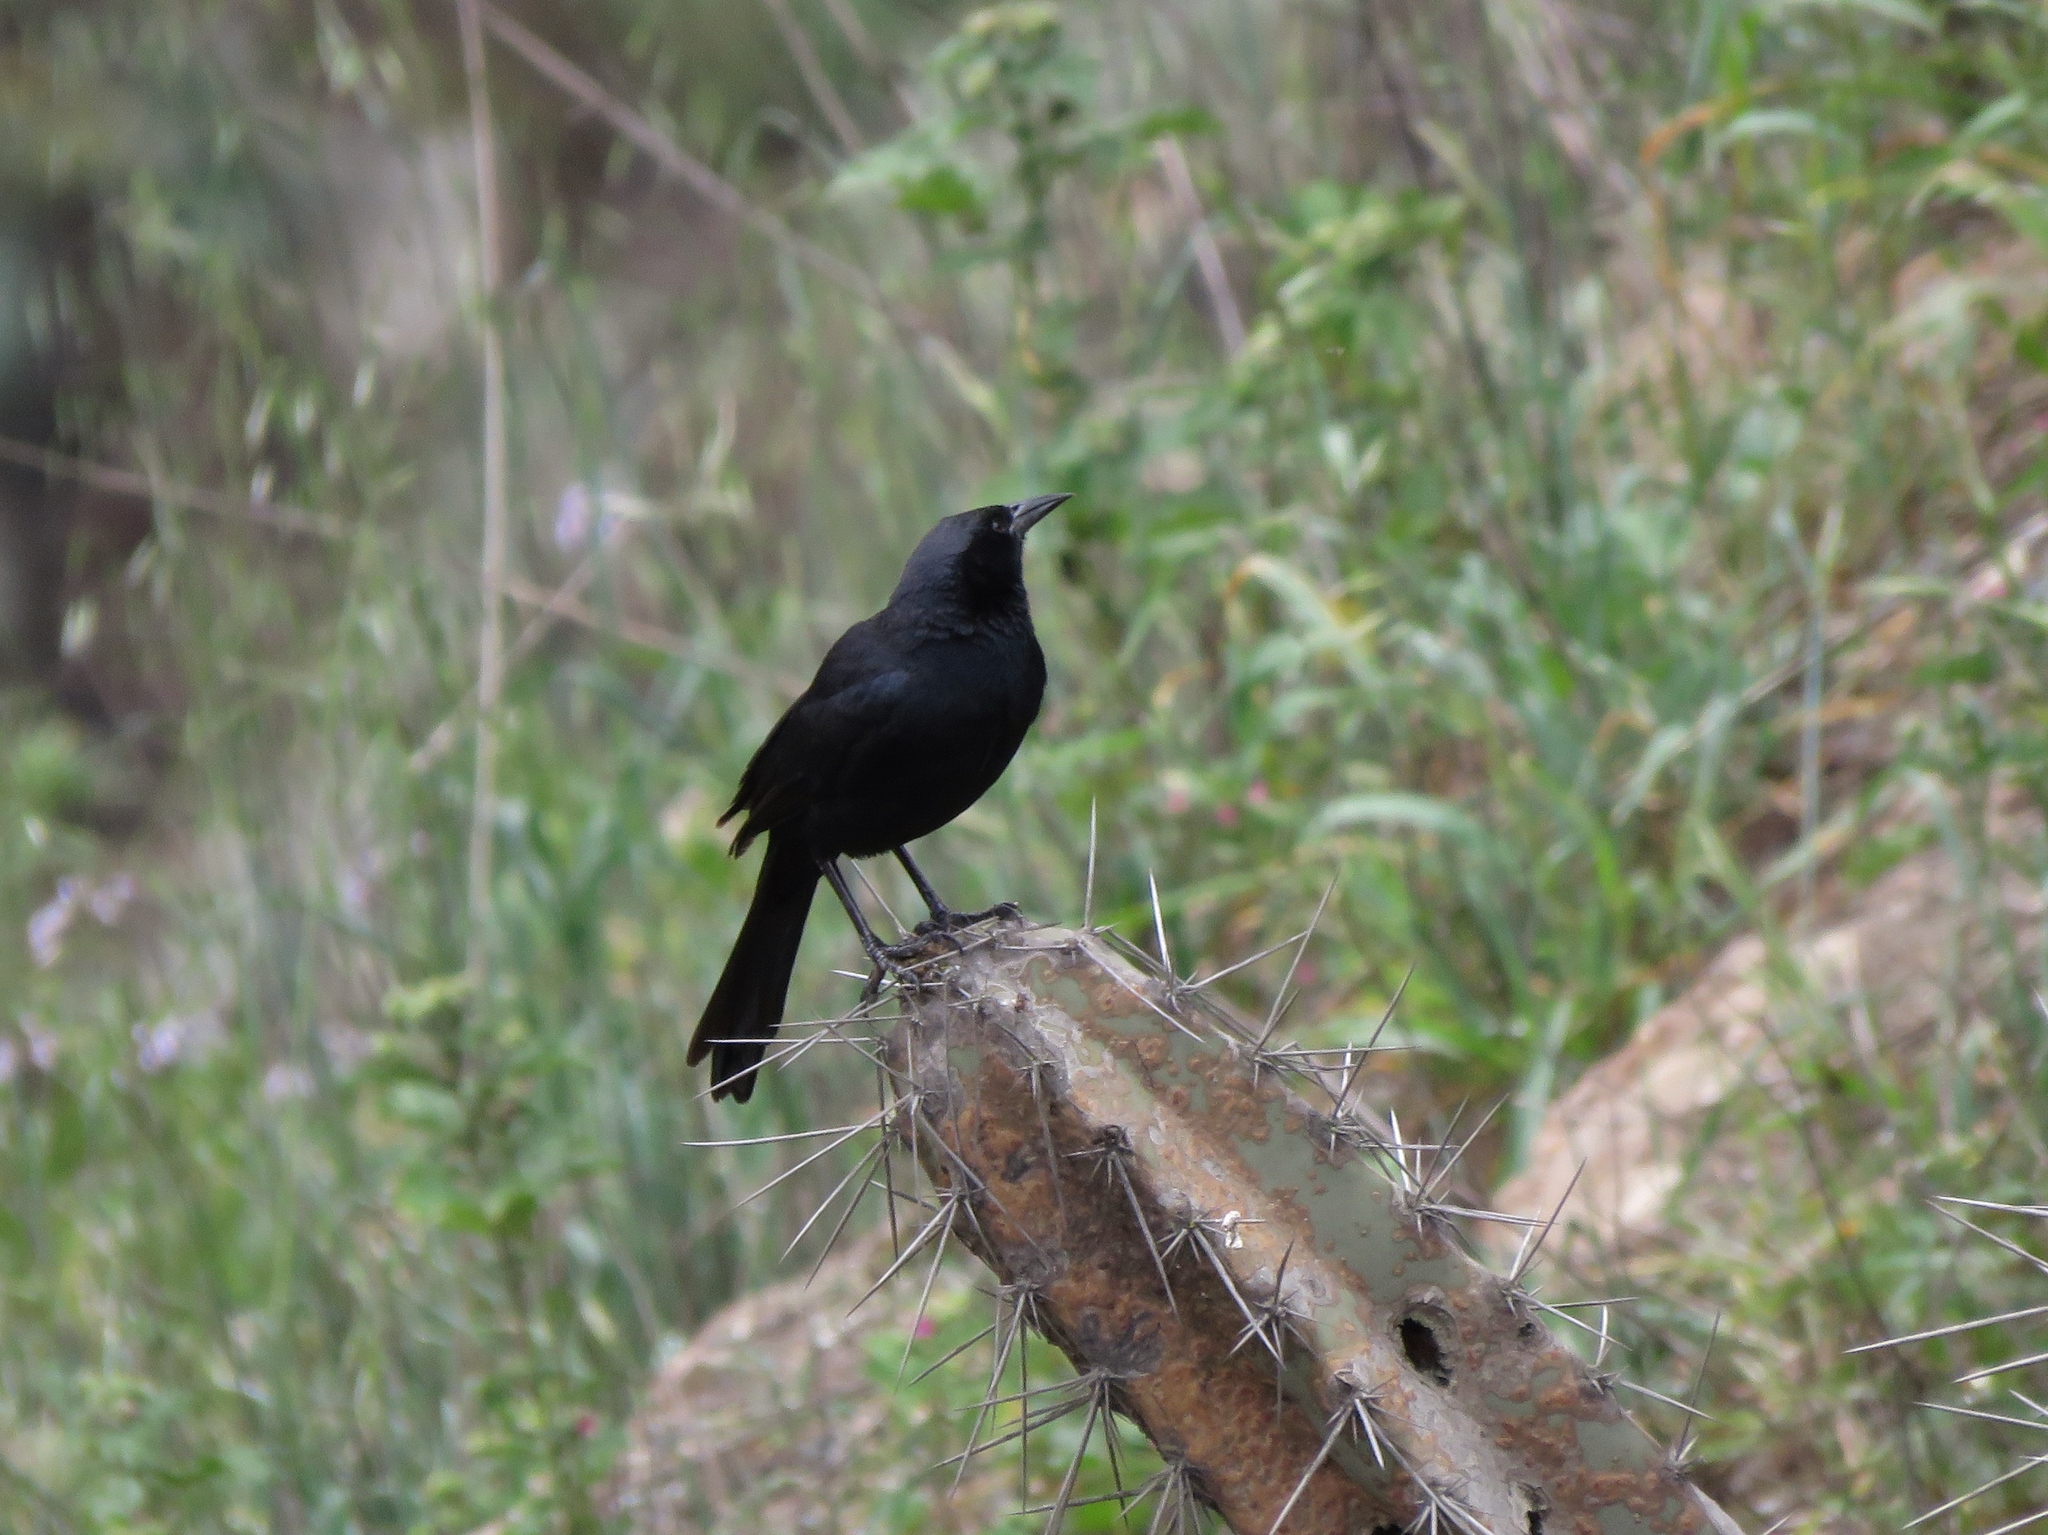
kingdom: Animalia
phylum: Chordata
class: Aves
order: Passeriformes
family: Icteridae
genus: Dives
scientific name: Dives warczewiczi
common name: Scrub blackbird
